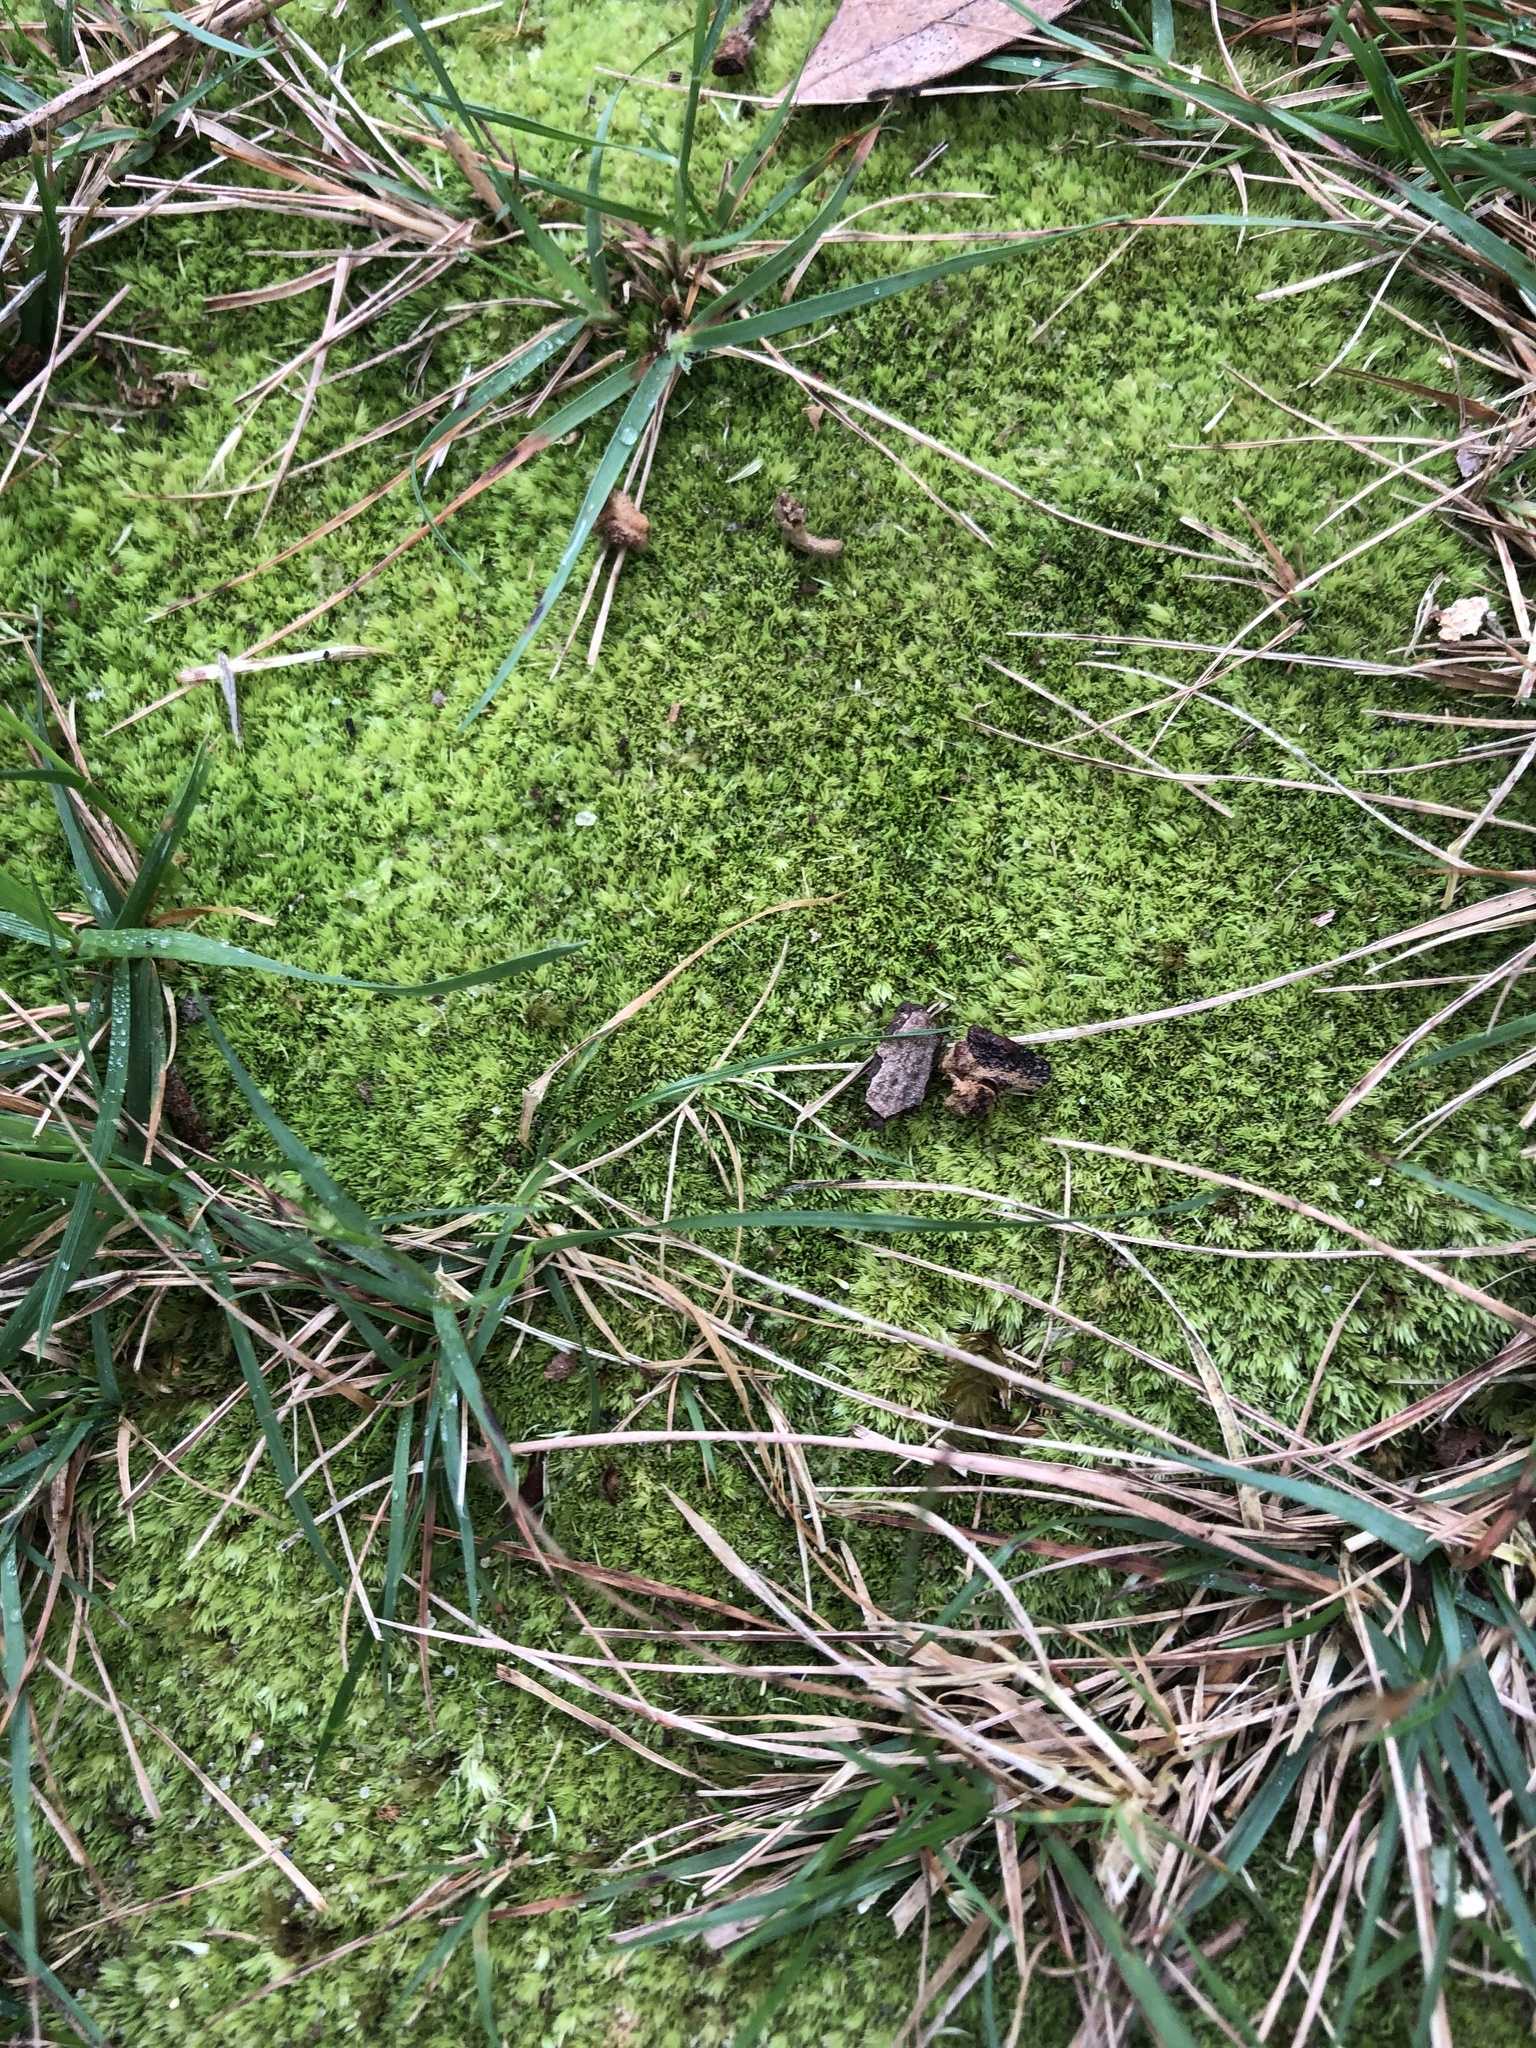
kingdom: Plantae
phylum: Bryophyta
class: Bryopsida
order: Dicranales
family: Leucobryaceae
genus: Leucobryum
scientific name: Leucobryum glaucum
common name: Large white-moss
